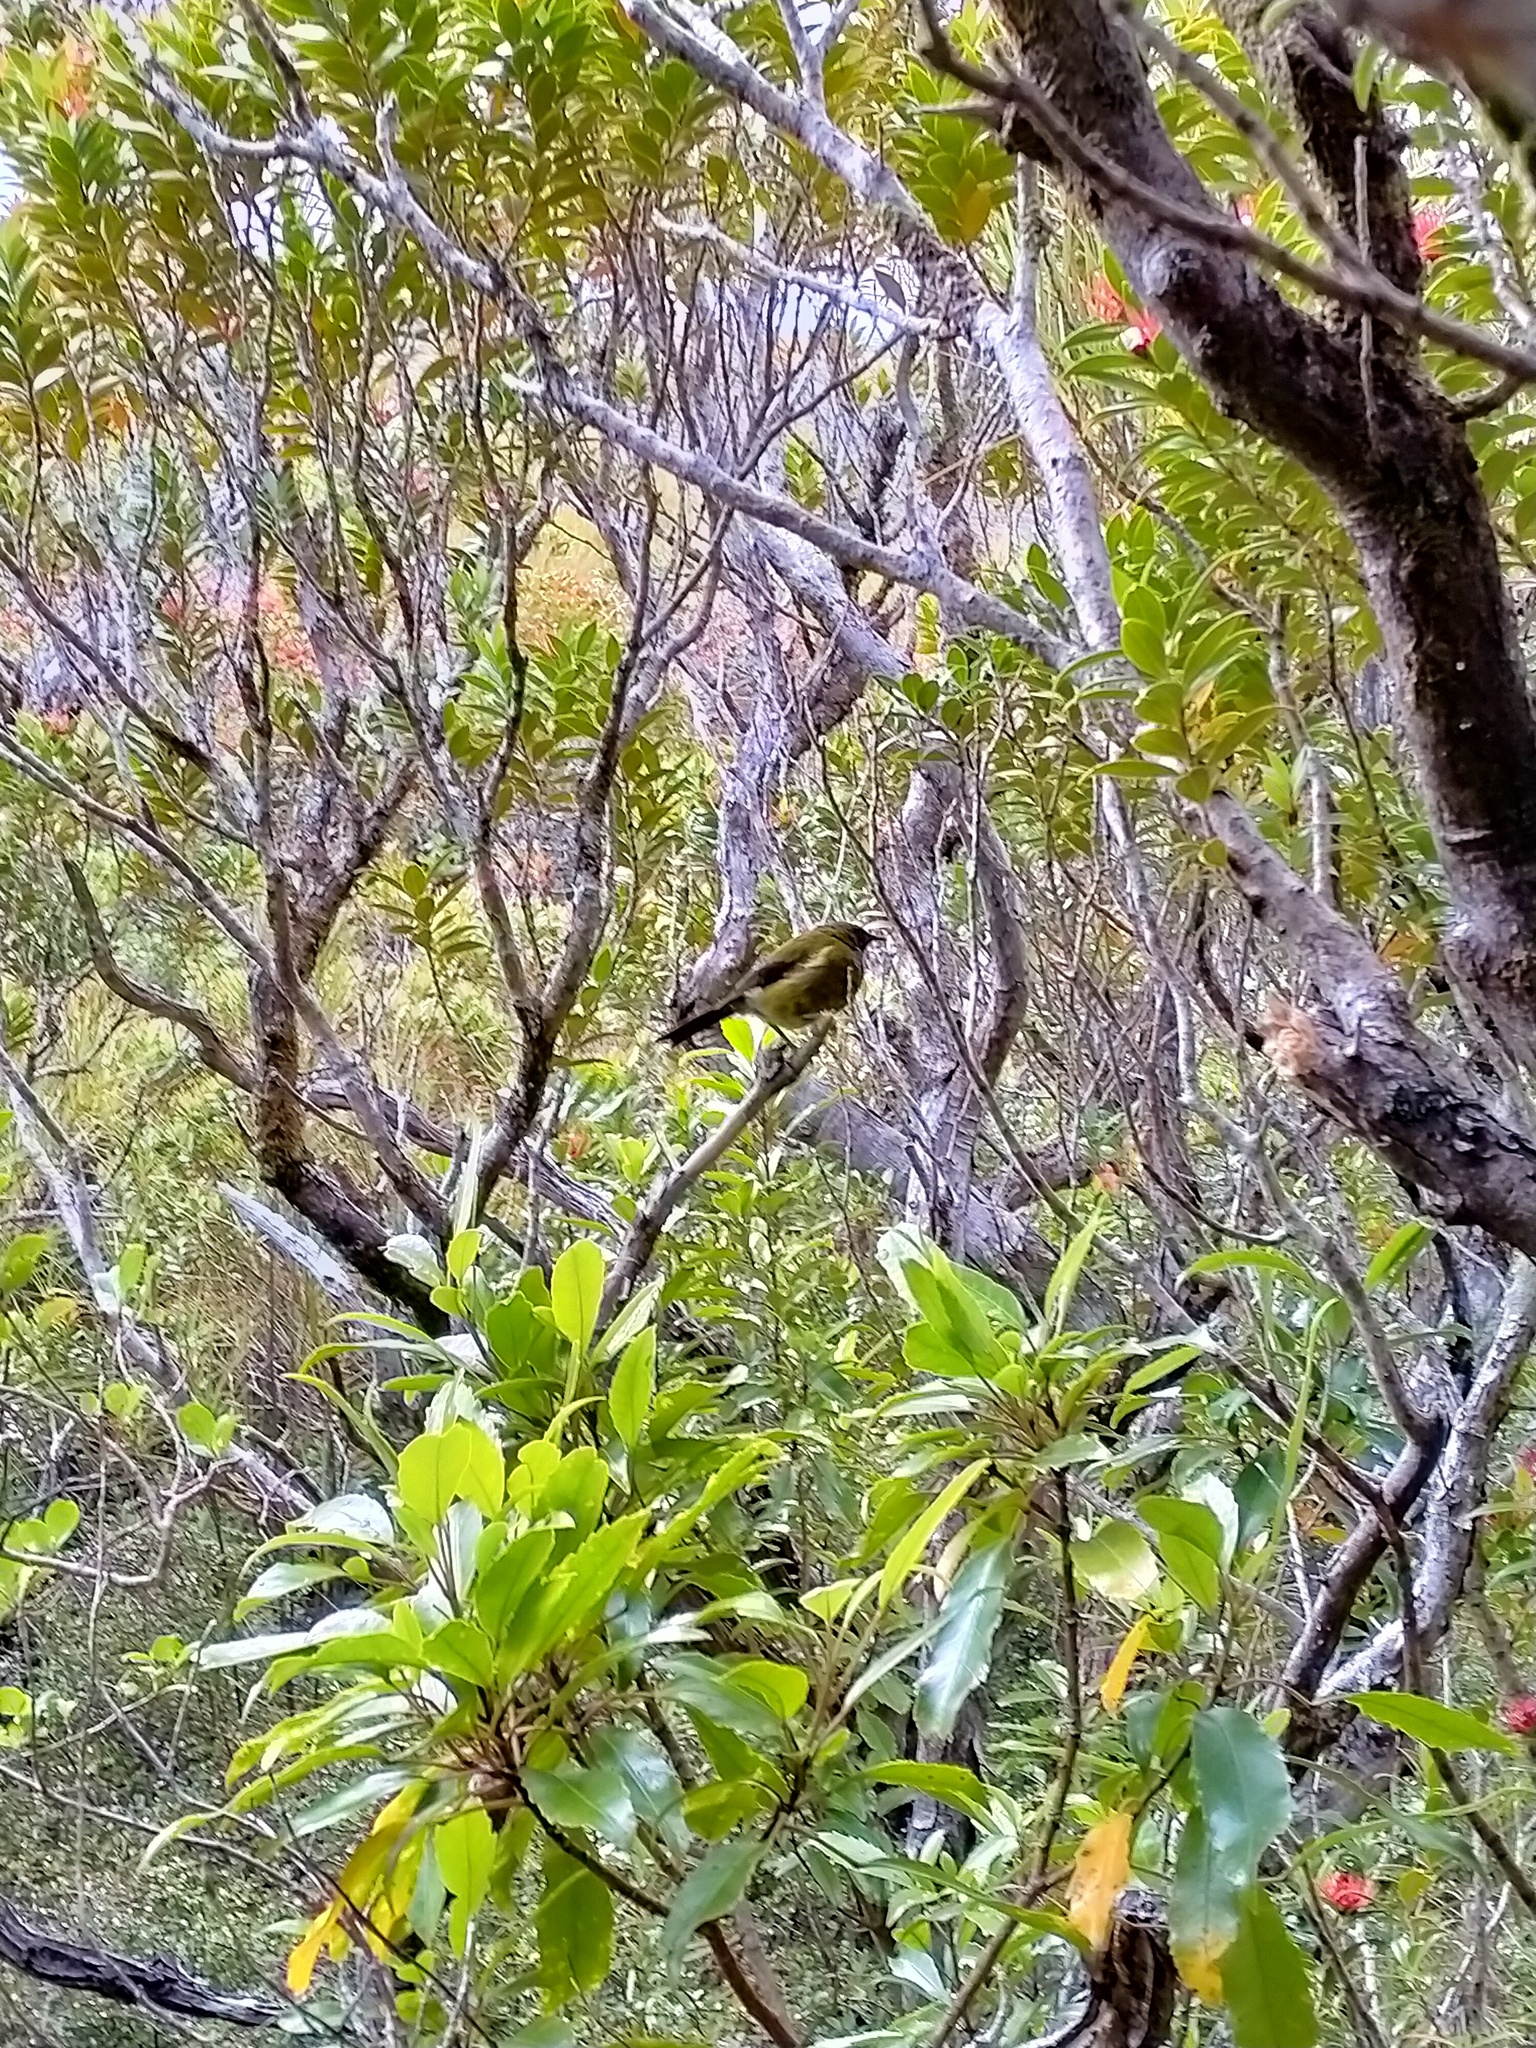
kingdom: Animalia
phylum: Chordata
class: Aves
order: Passeriformes
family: Meliphagidae
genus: Anthornis
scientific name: Anthornis melanura
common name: New zealand bellbird
